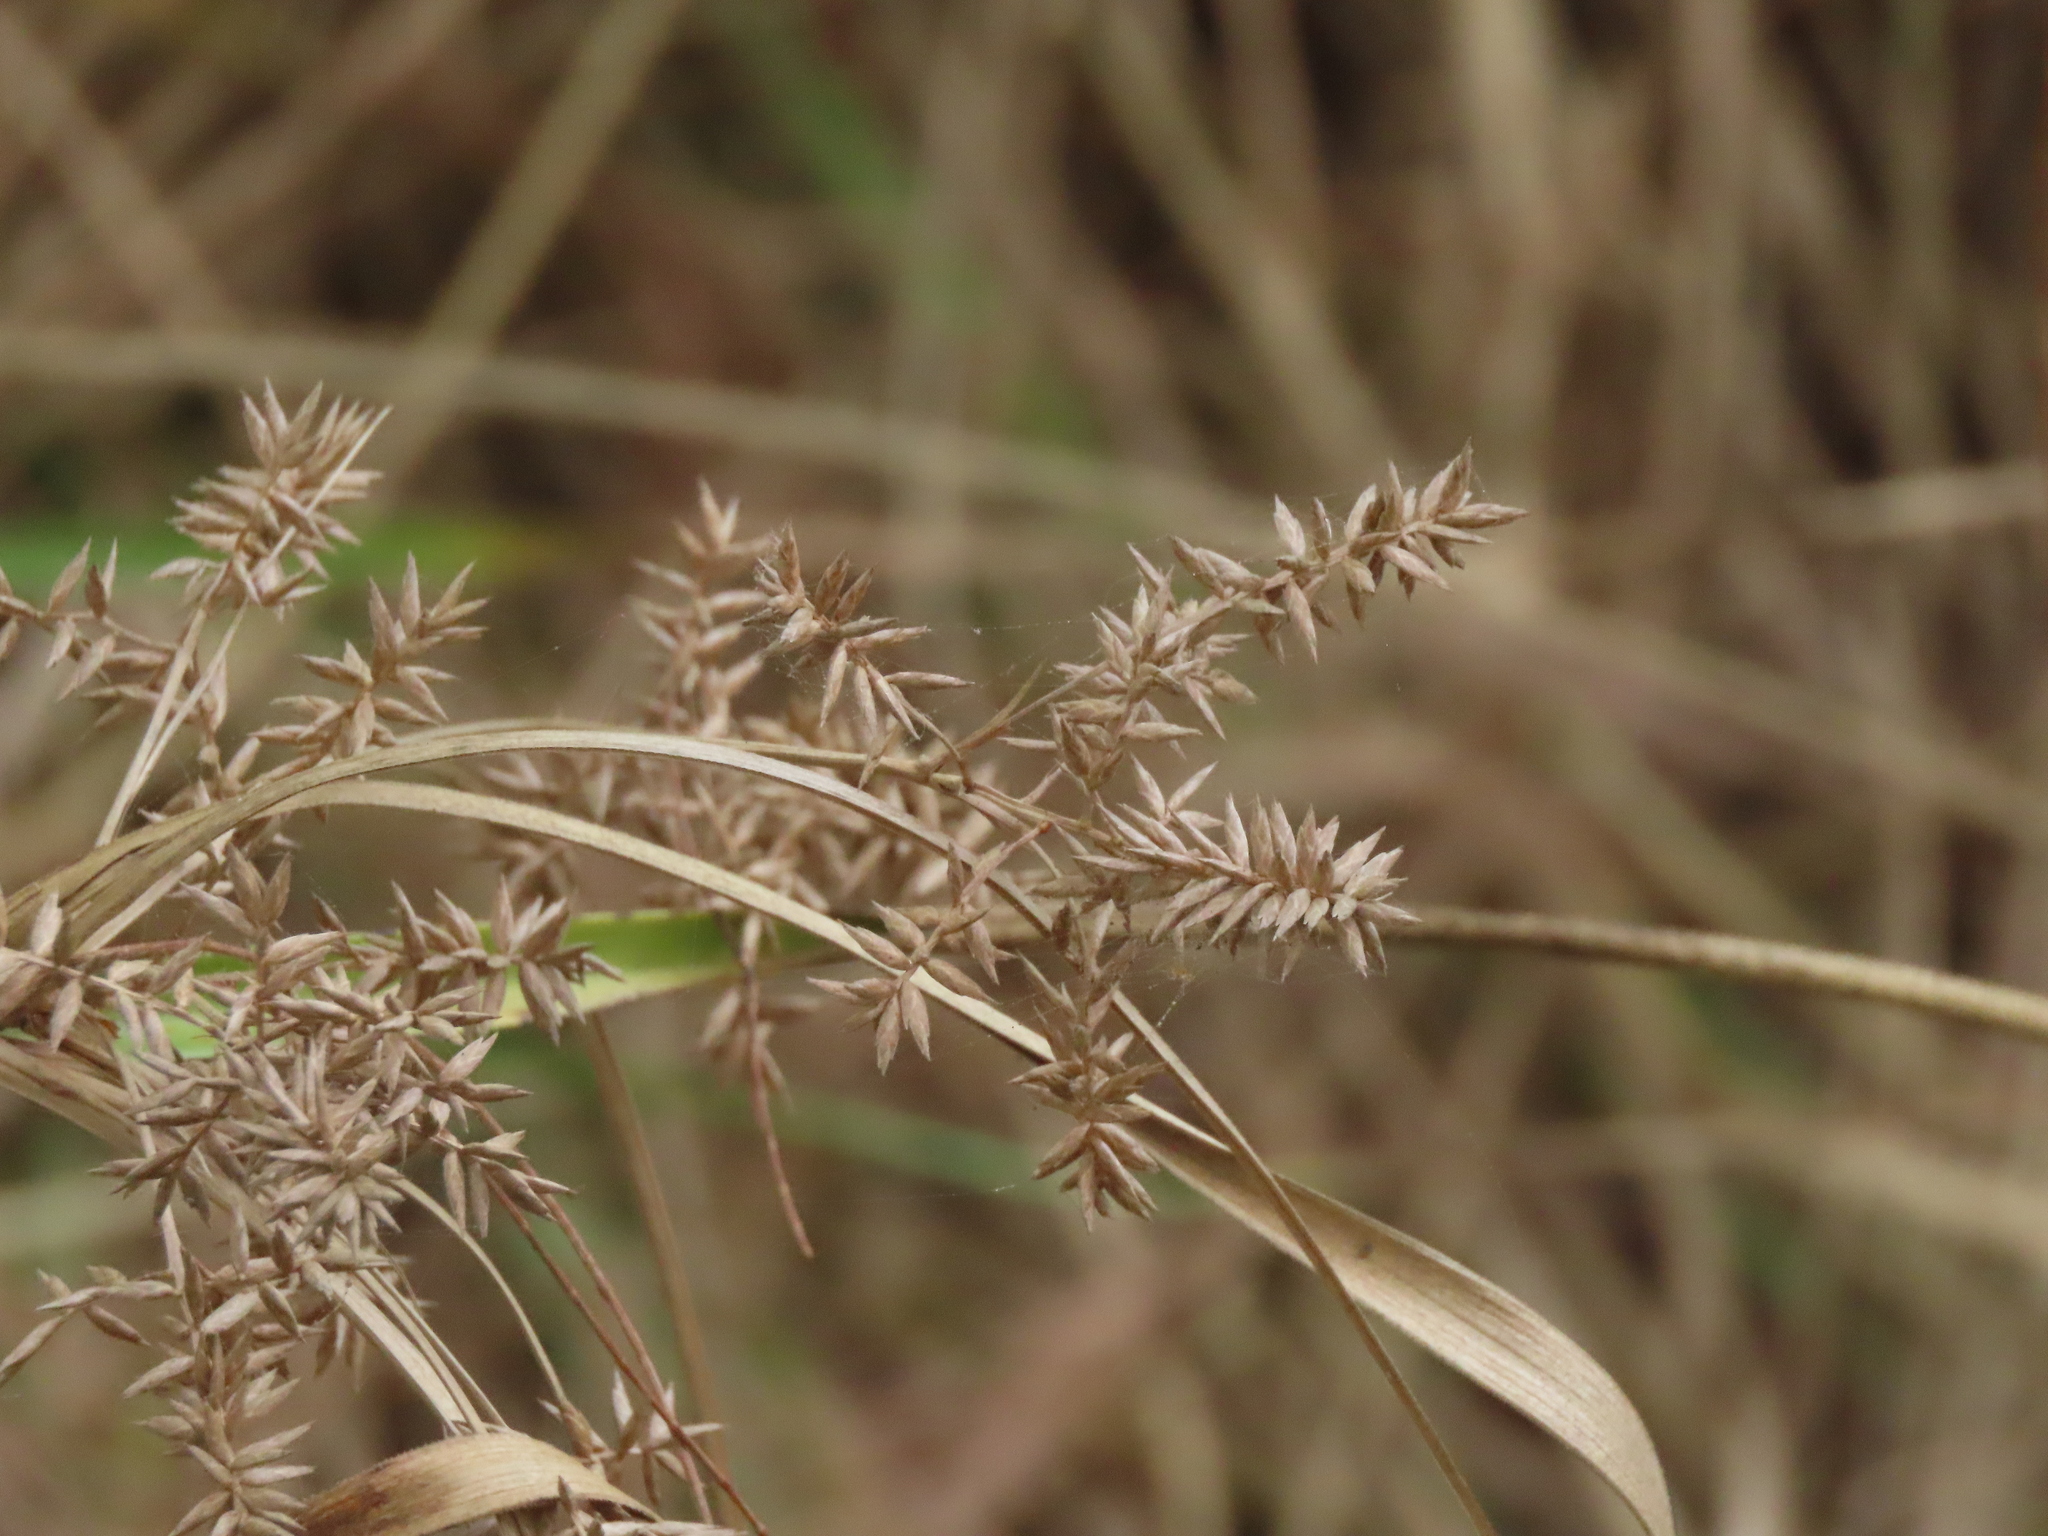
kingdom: Plantae
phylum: Tracheophyta
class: Liliopsida
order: Poales
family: Cyperaceae
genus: Cyperus
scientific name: Cyperus javanicus
